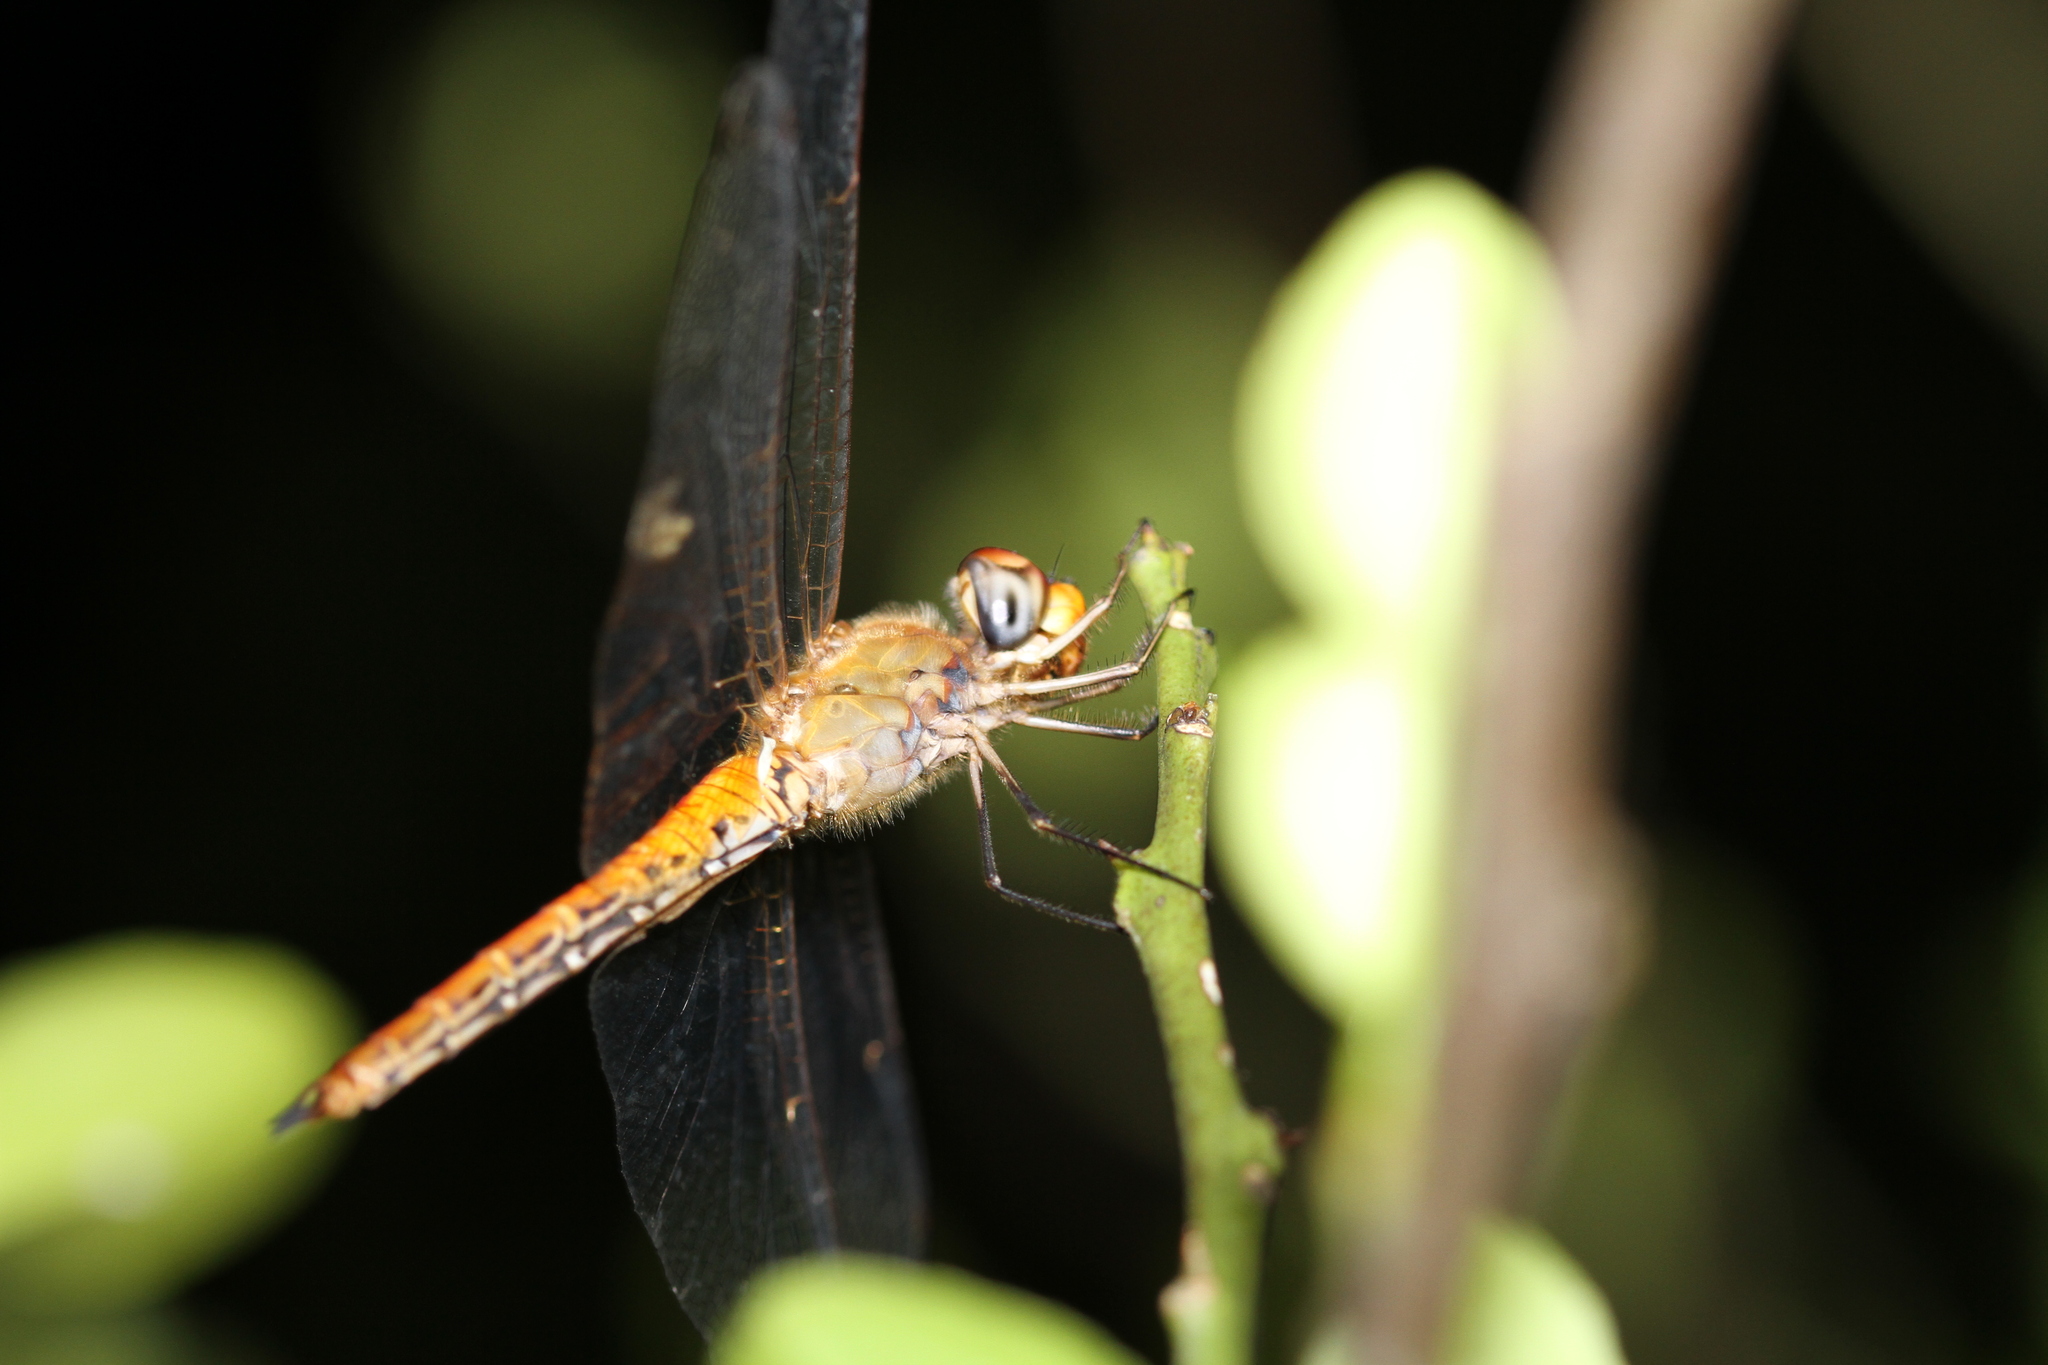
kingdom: Animalia
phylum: Arthropoda
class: Insecta
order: Odonata
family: Libellulidae
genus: Pantala
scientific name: Pantala flavescens
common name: Wandering glider
